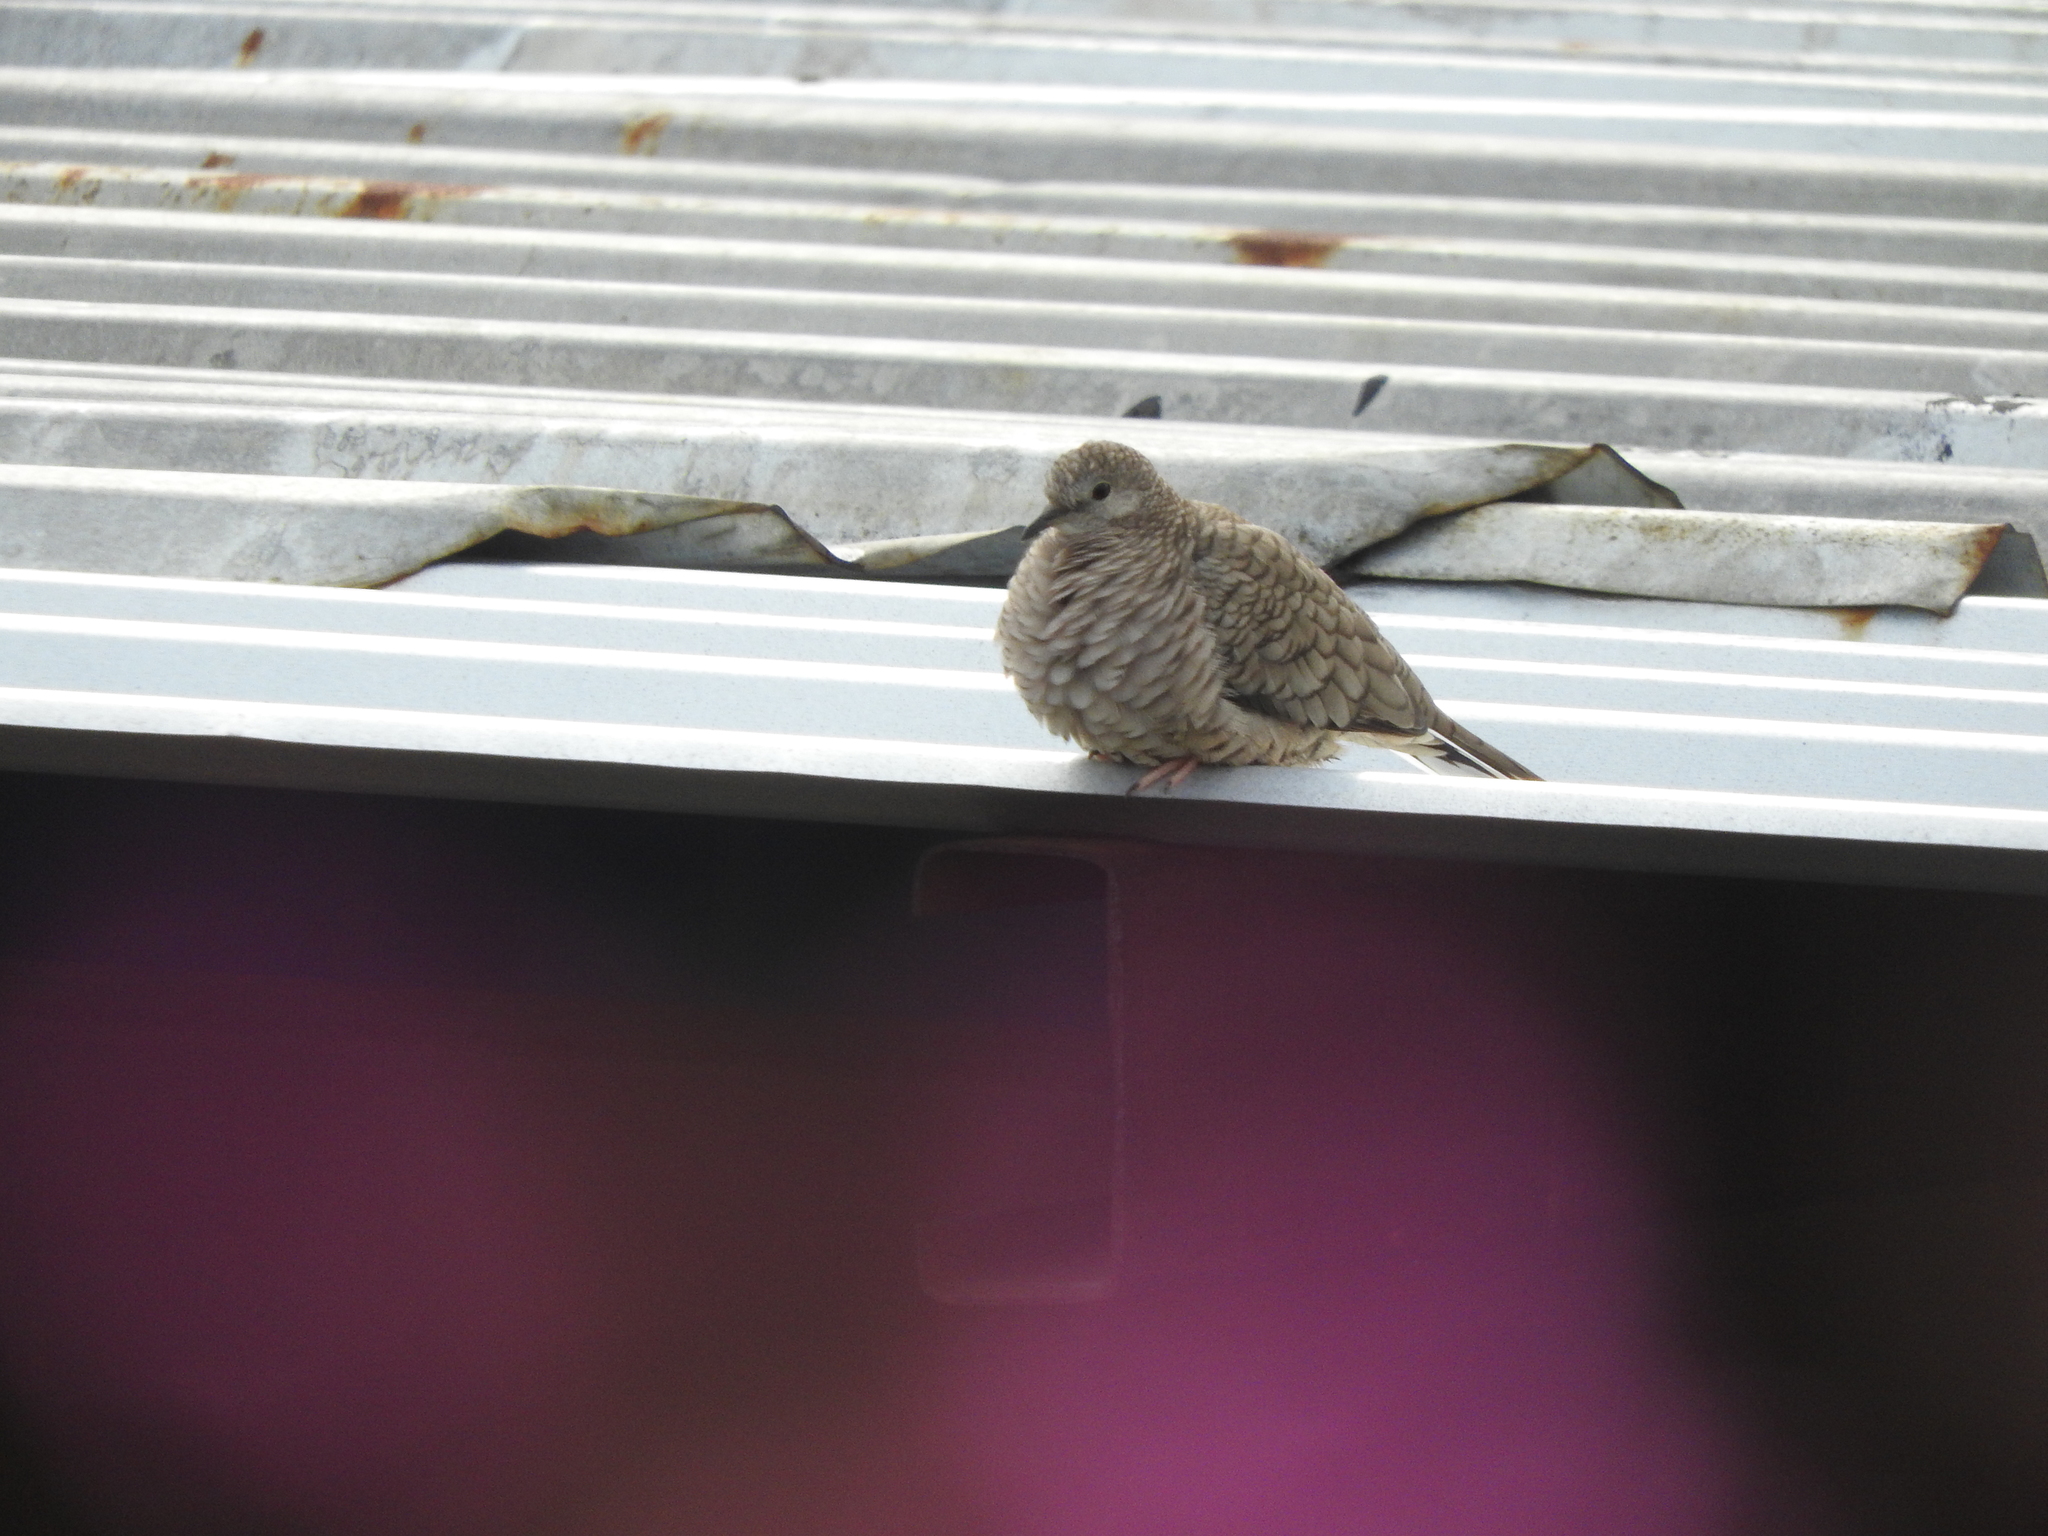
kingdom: Animalia
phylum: Chordata
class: Aves
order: Columbiformes
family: Columbidae
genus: Columbina
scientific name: Columbina inca
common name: Inca dove
